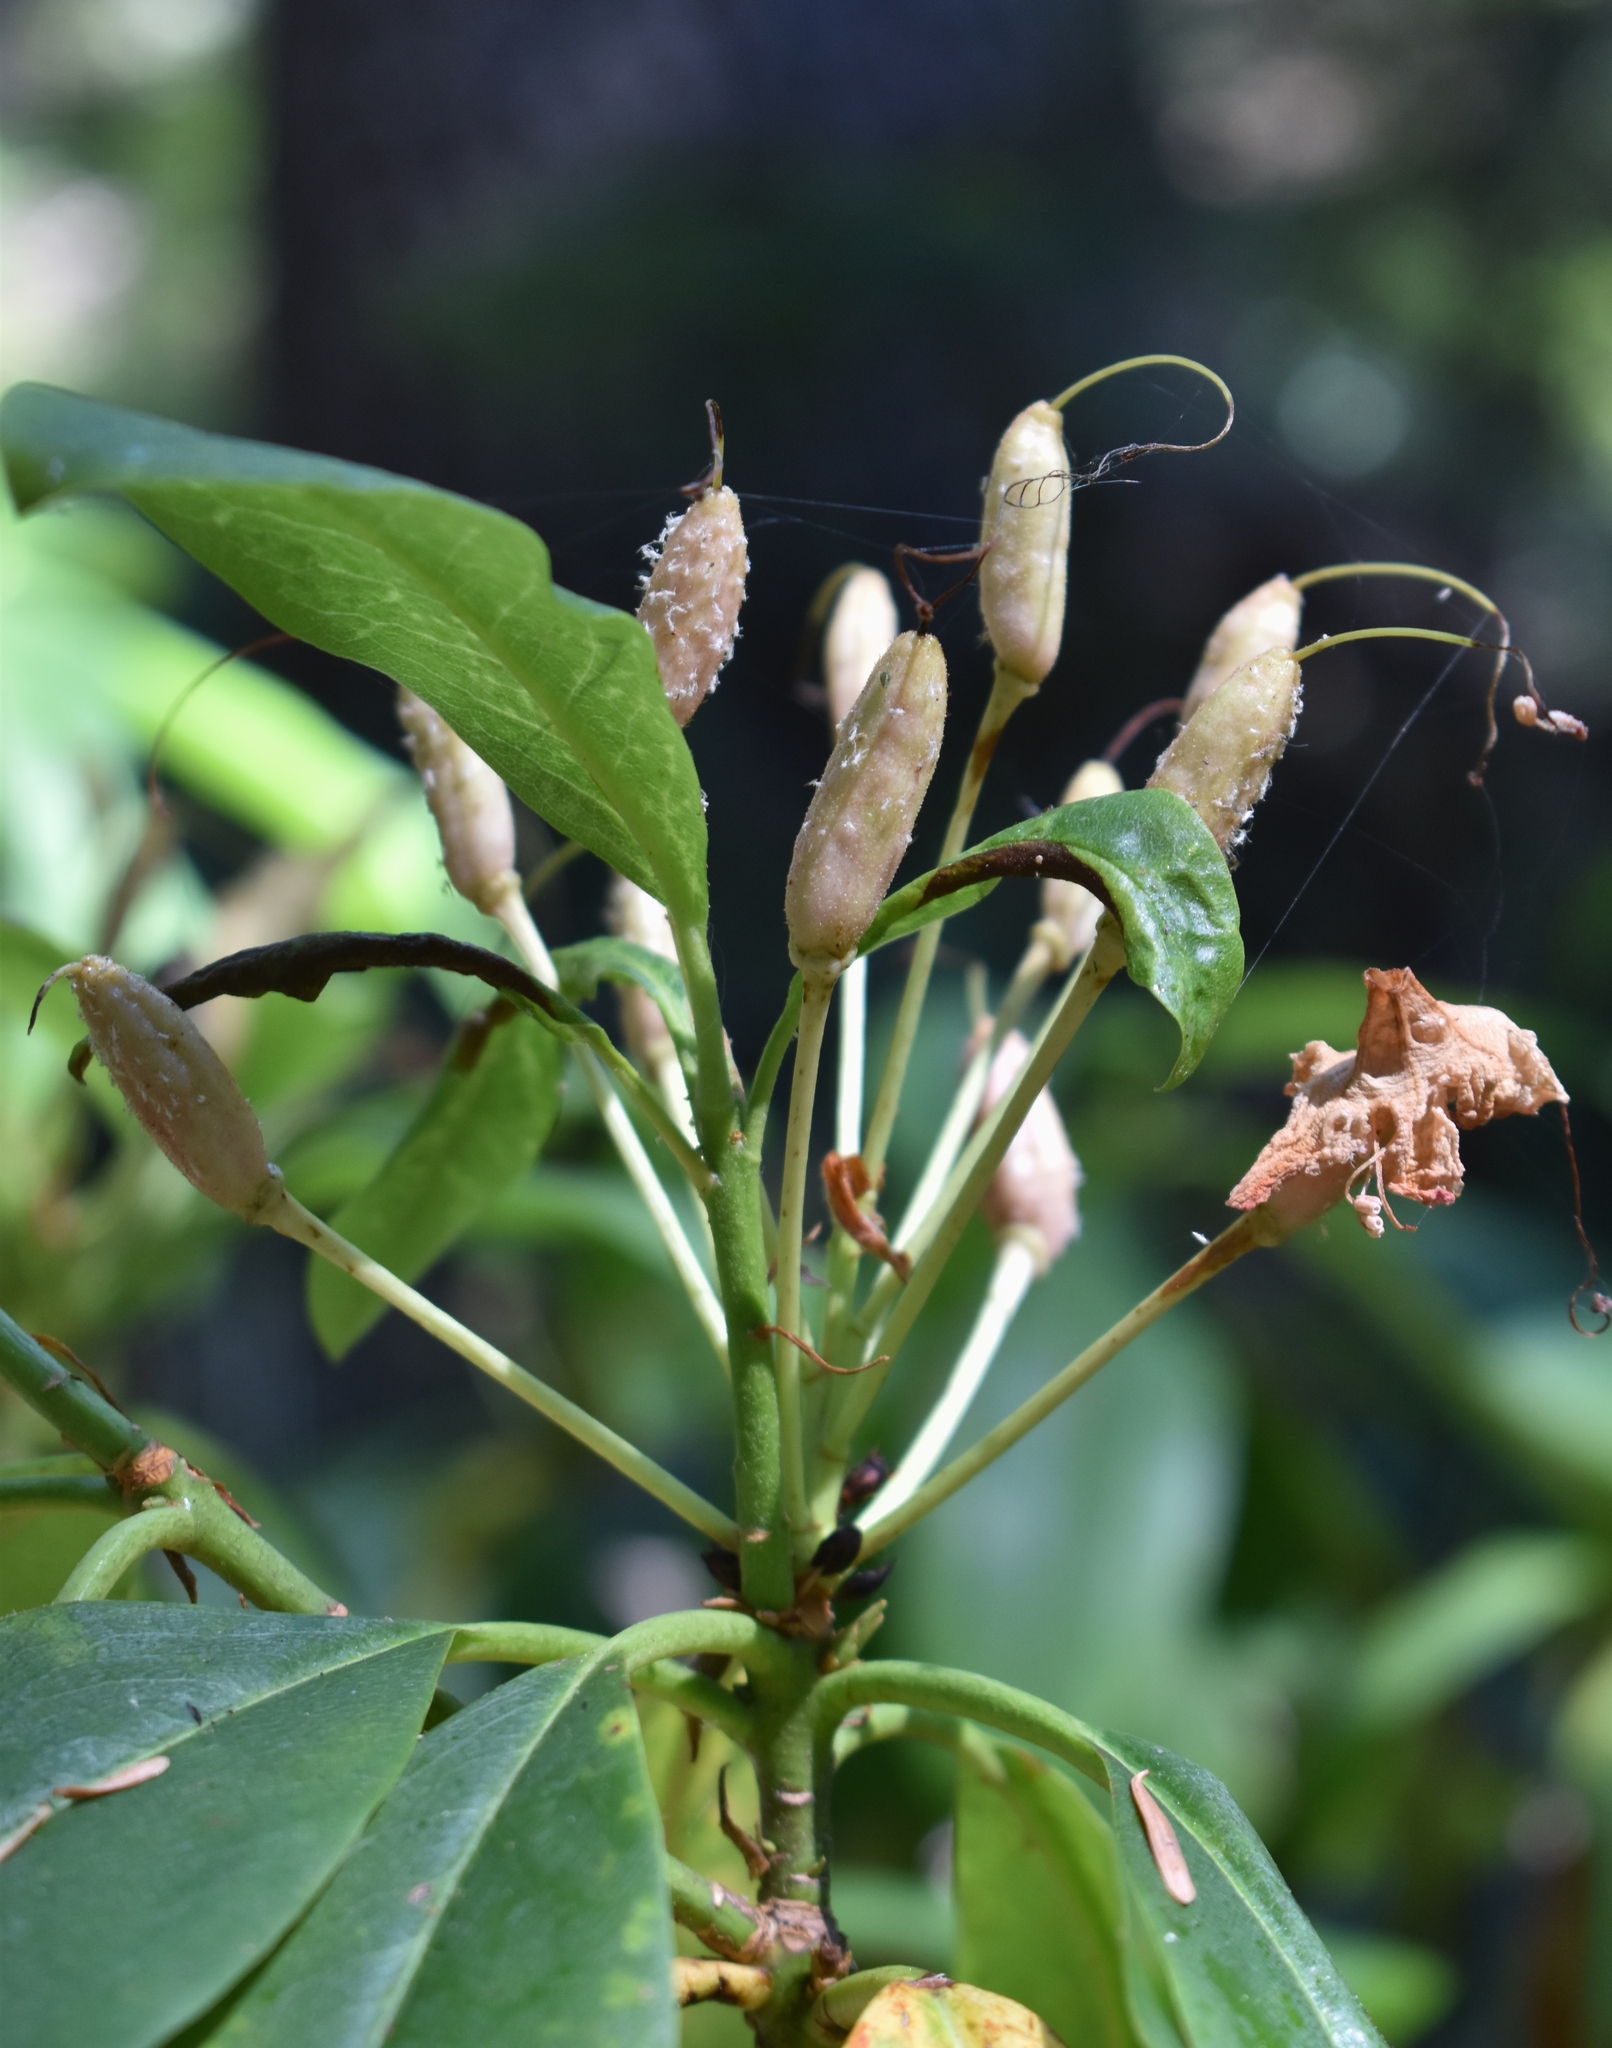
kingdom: Plantae
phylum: Tracheophyta
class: Magnoliopsida
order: Ericales
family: Ericaceae
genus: Rhododendron
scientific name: Rhododendron macrophyllum
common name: California rose bay
